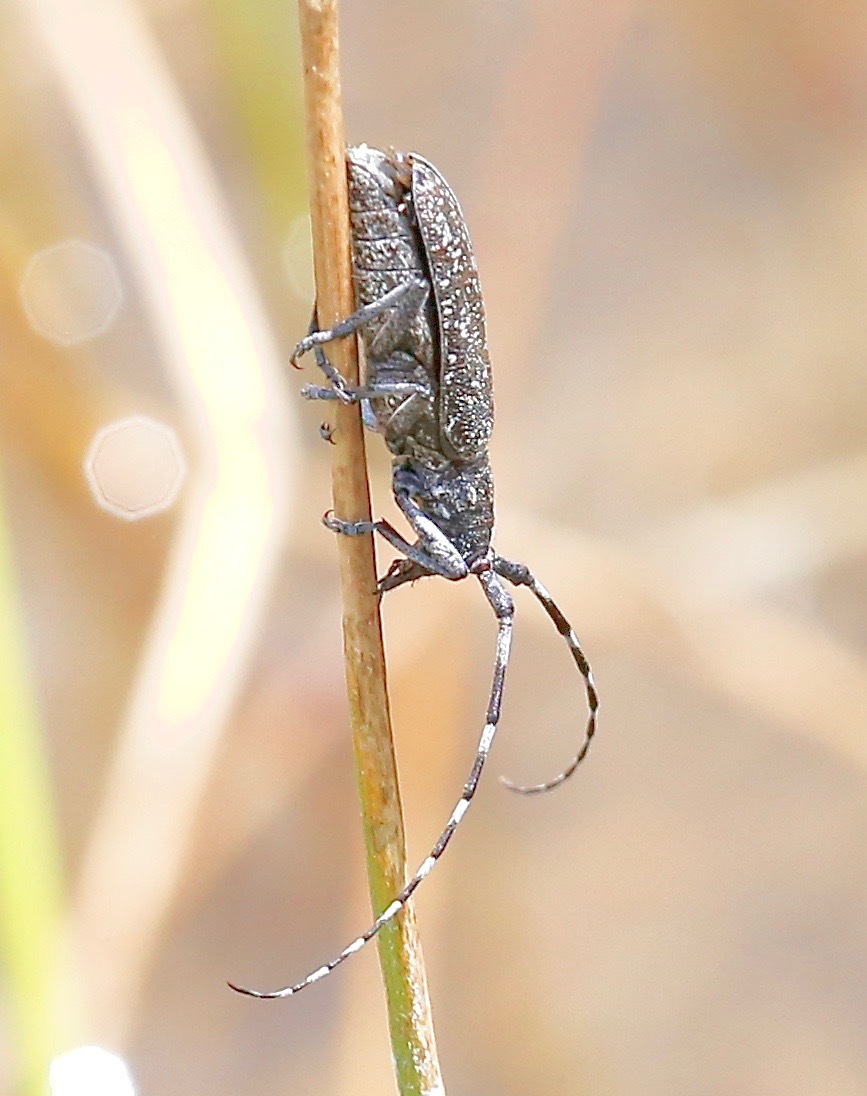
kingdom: Animalia
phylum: Arthropoda
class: Insecta
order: Coleoptera
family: Cerambycidae
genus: Monochamus
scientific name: Monochamus scutellatus
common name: White-spotted sawyer beetle
